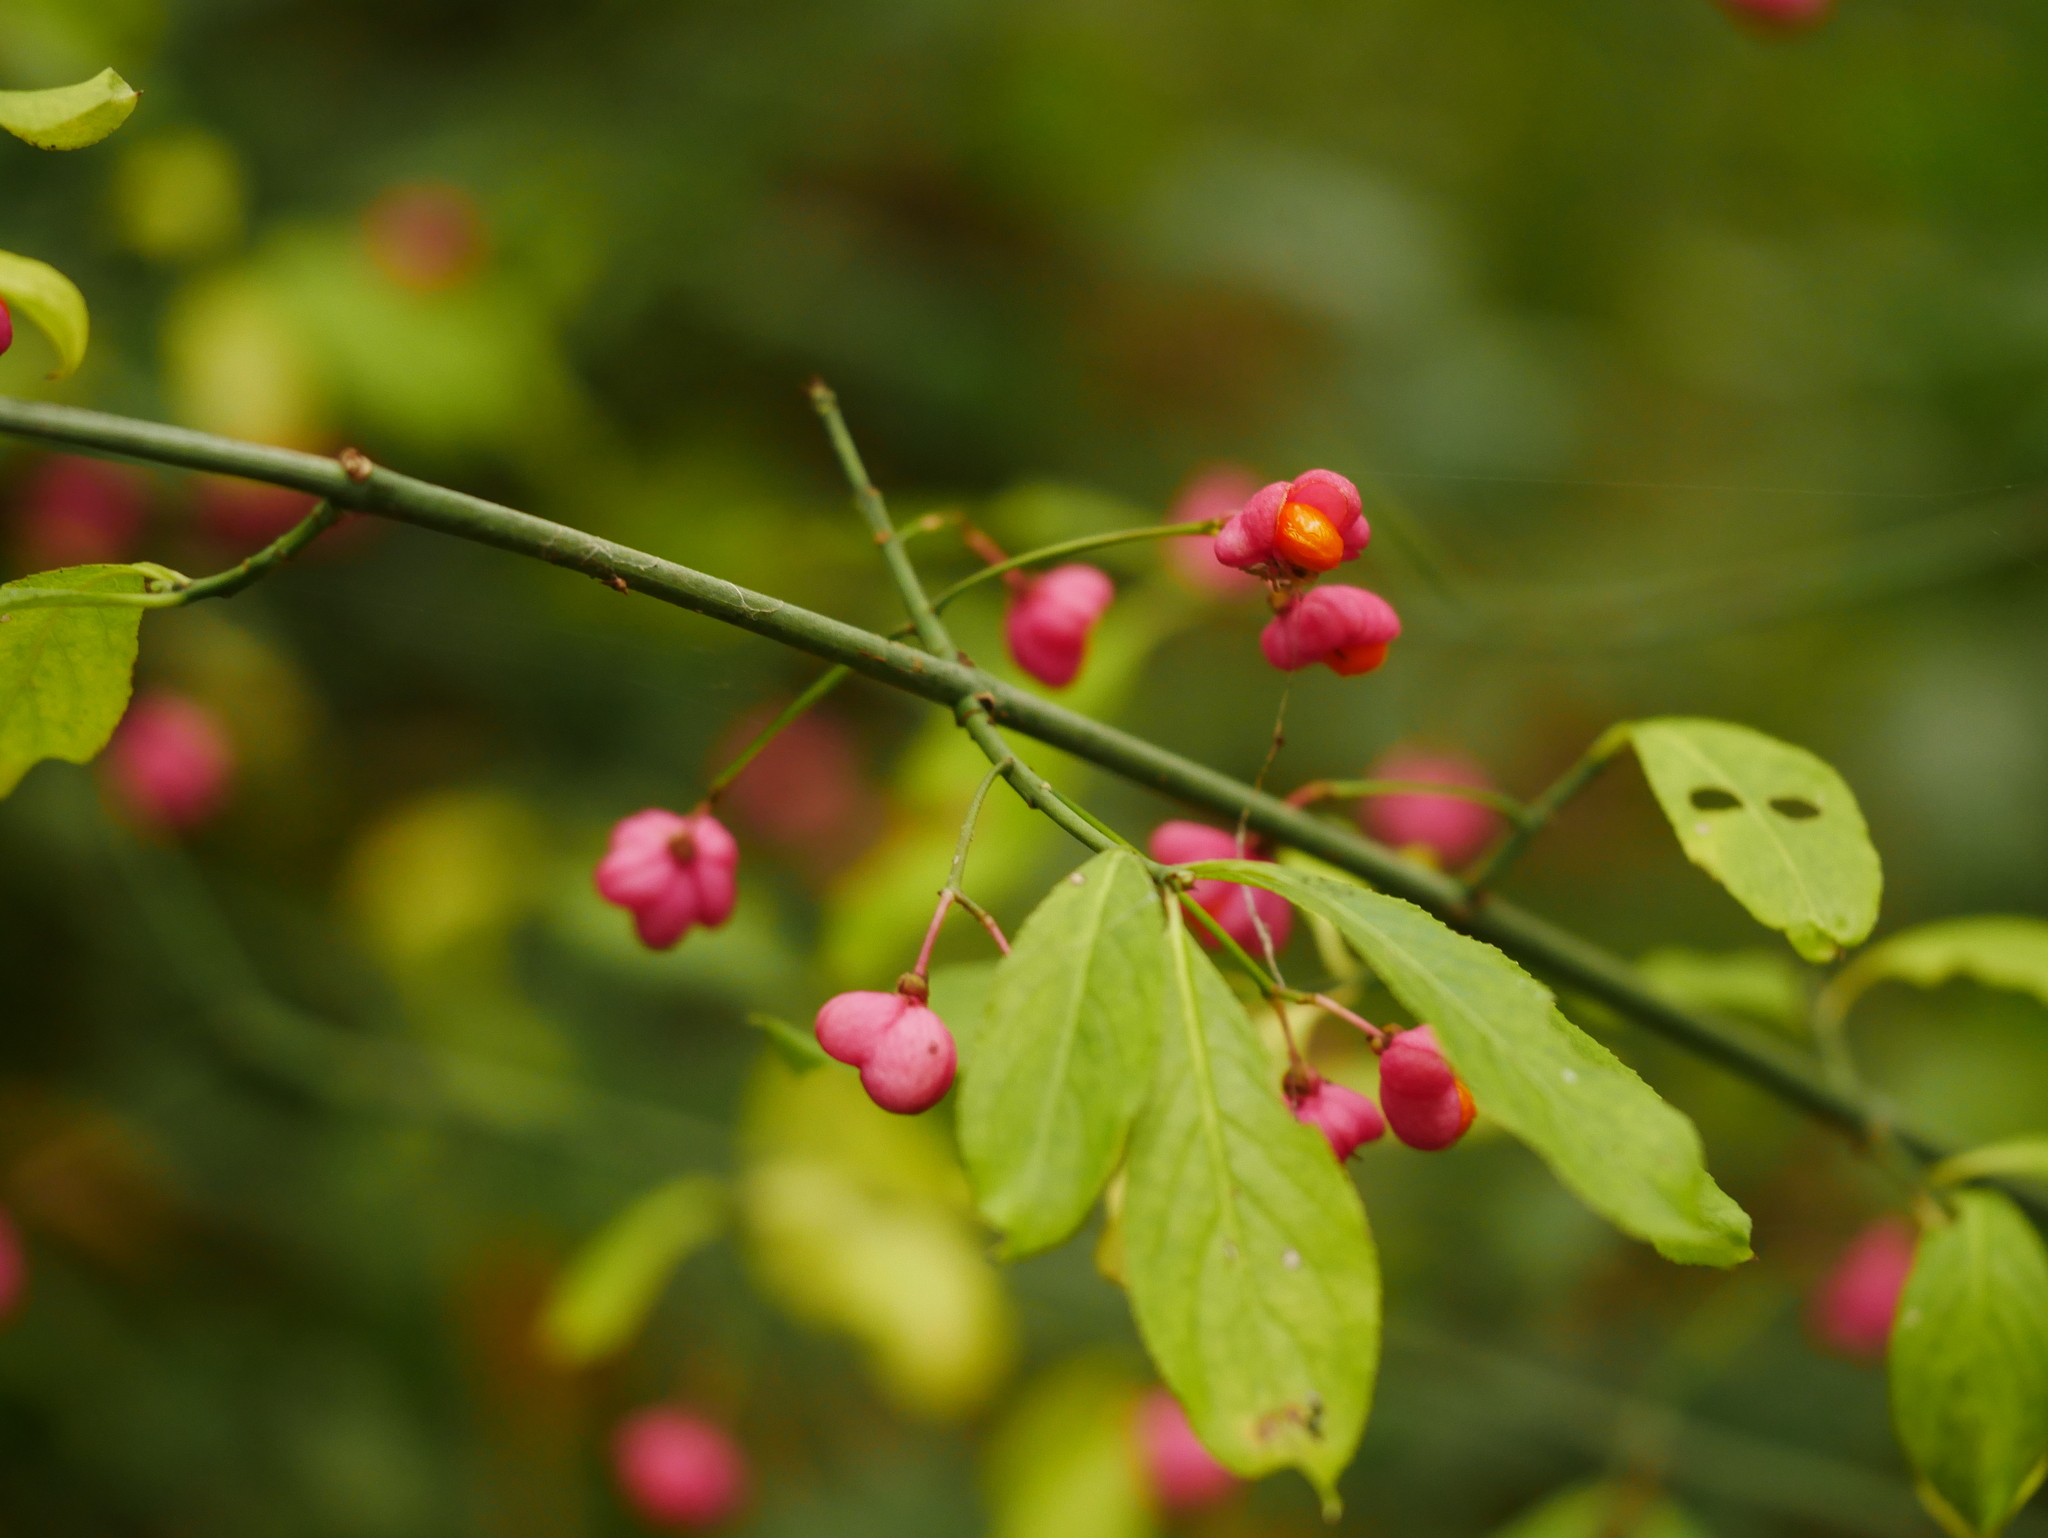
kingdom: Plantae
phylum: Tracheophyta
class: Magnoliopsida
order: Celastrales
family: Celastraceae
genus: Euonymus
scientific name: Euonymus europaeus
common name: Spindle
